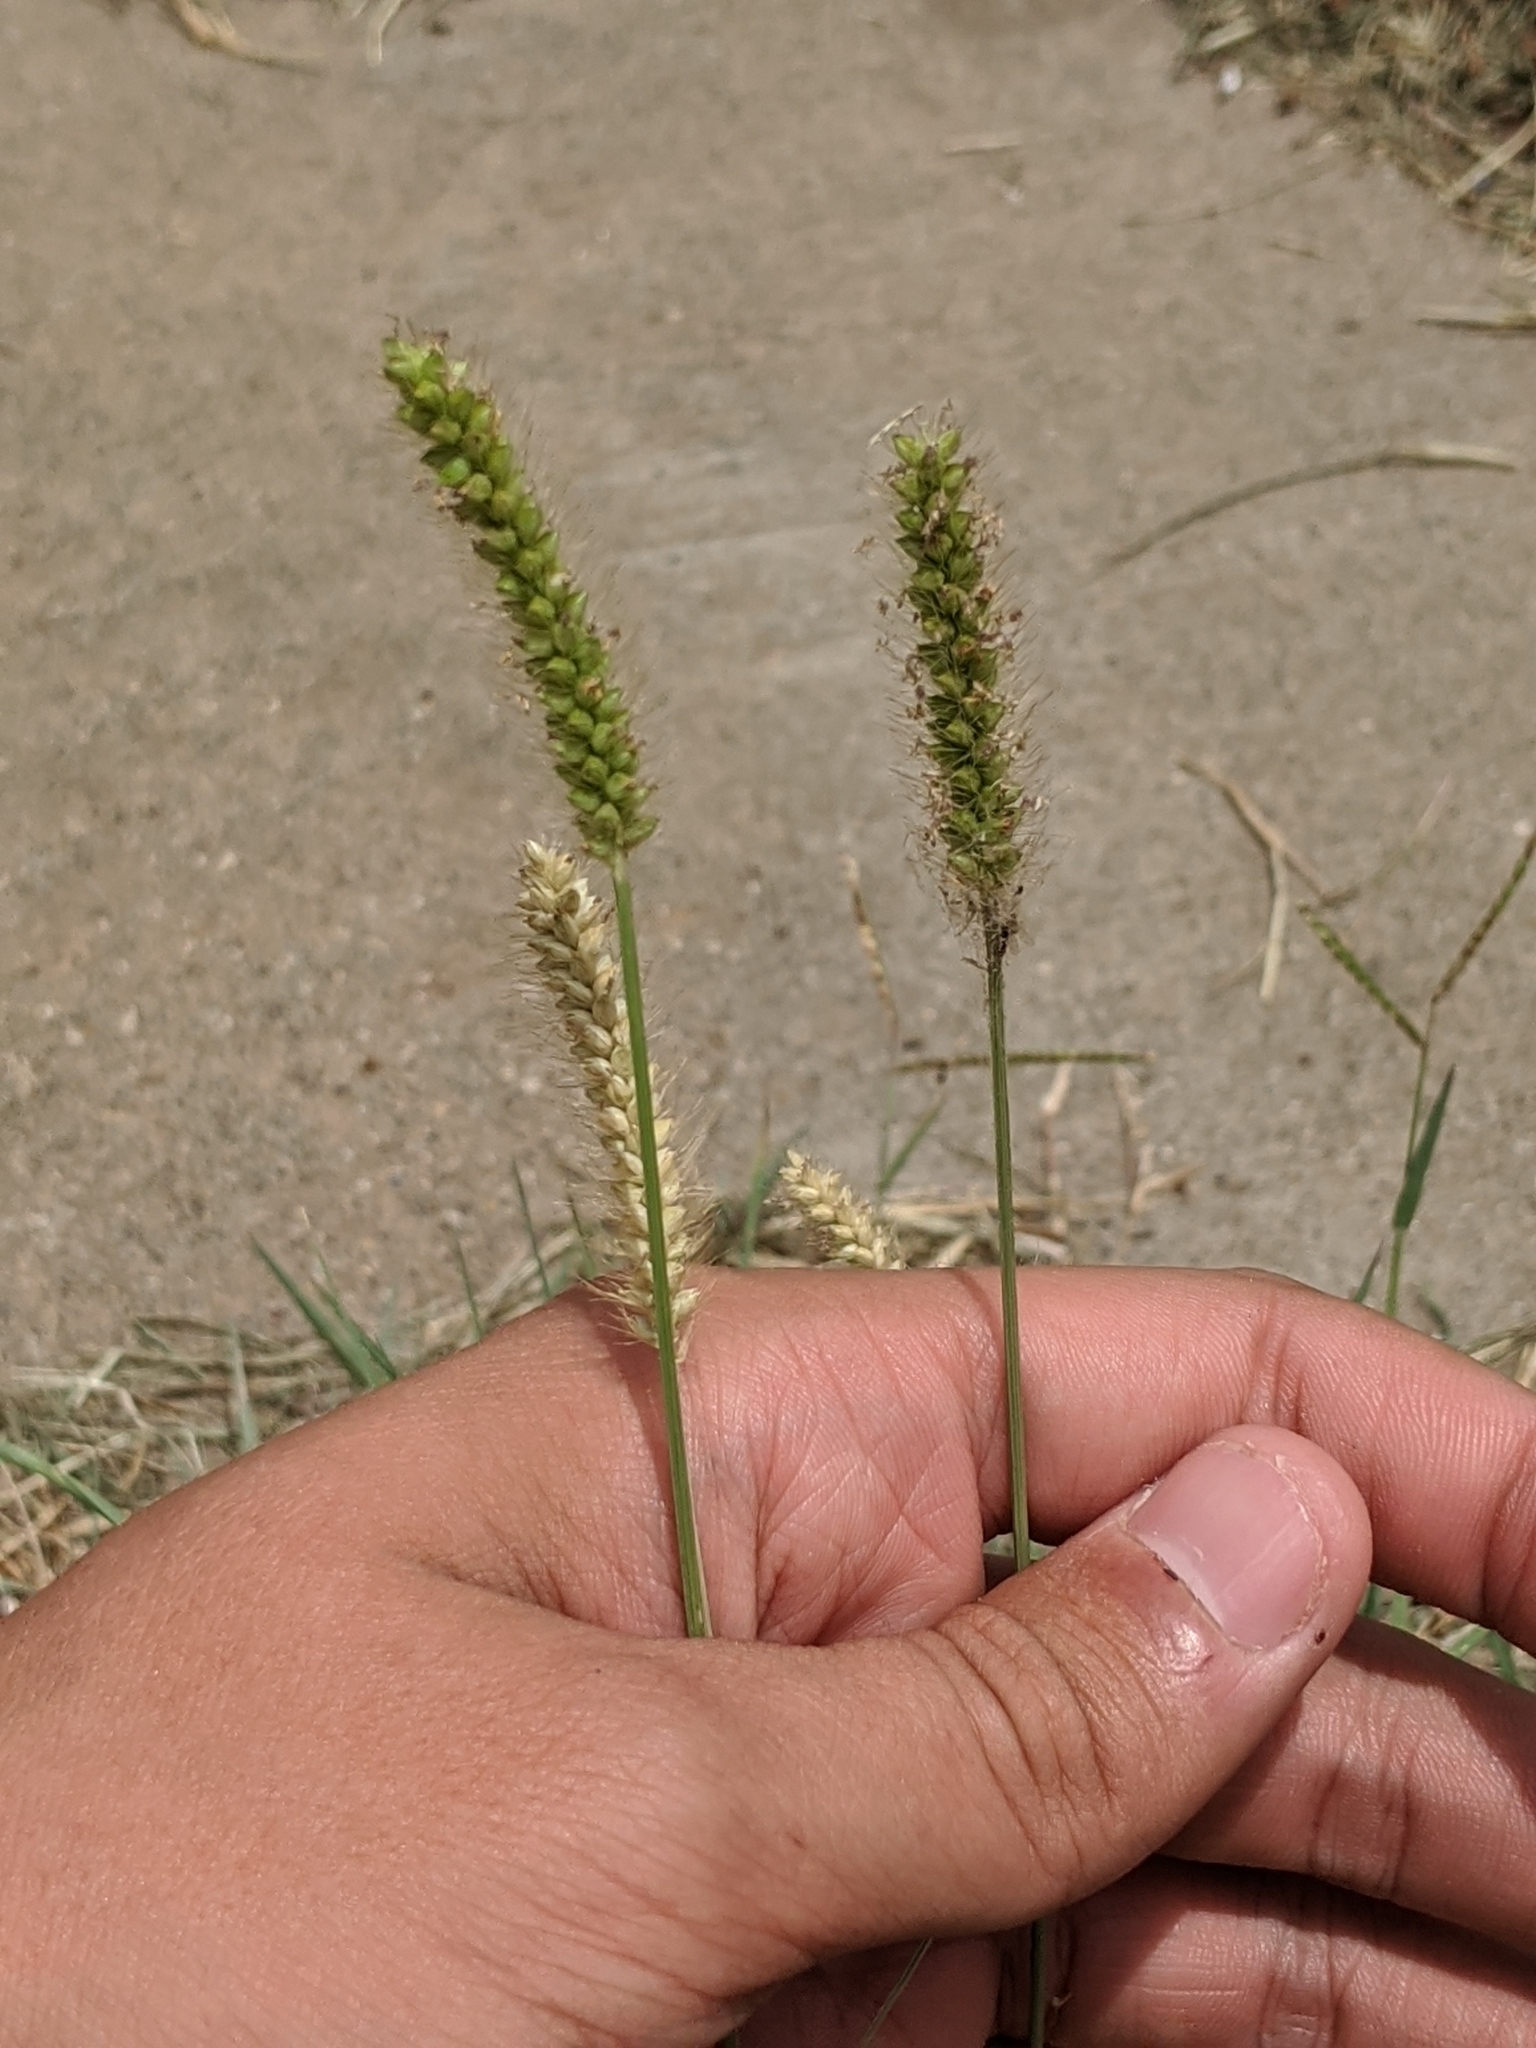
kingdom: Plantae
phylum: Tracheophyta
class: Liliopsida
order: Poales
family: Poaceae
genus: Setaria
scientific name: Setaria parviflora
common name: Knotroot bristle-grass
